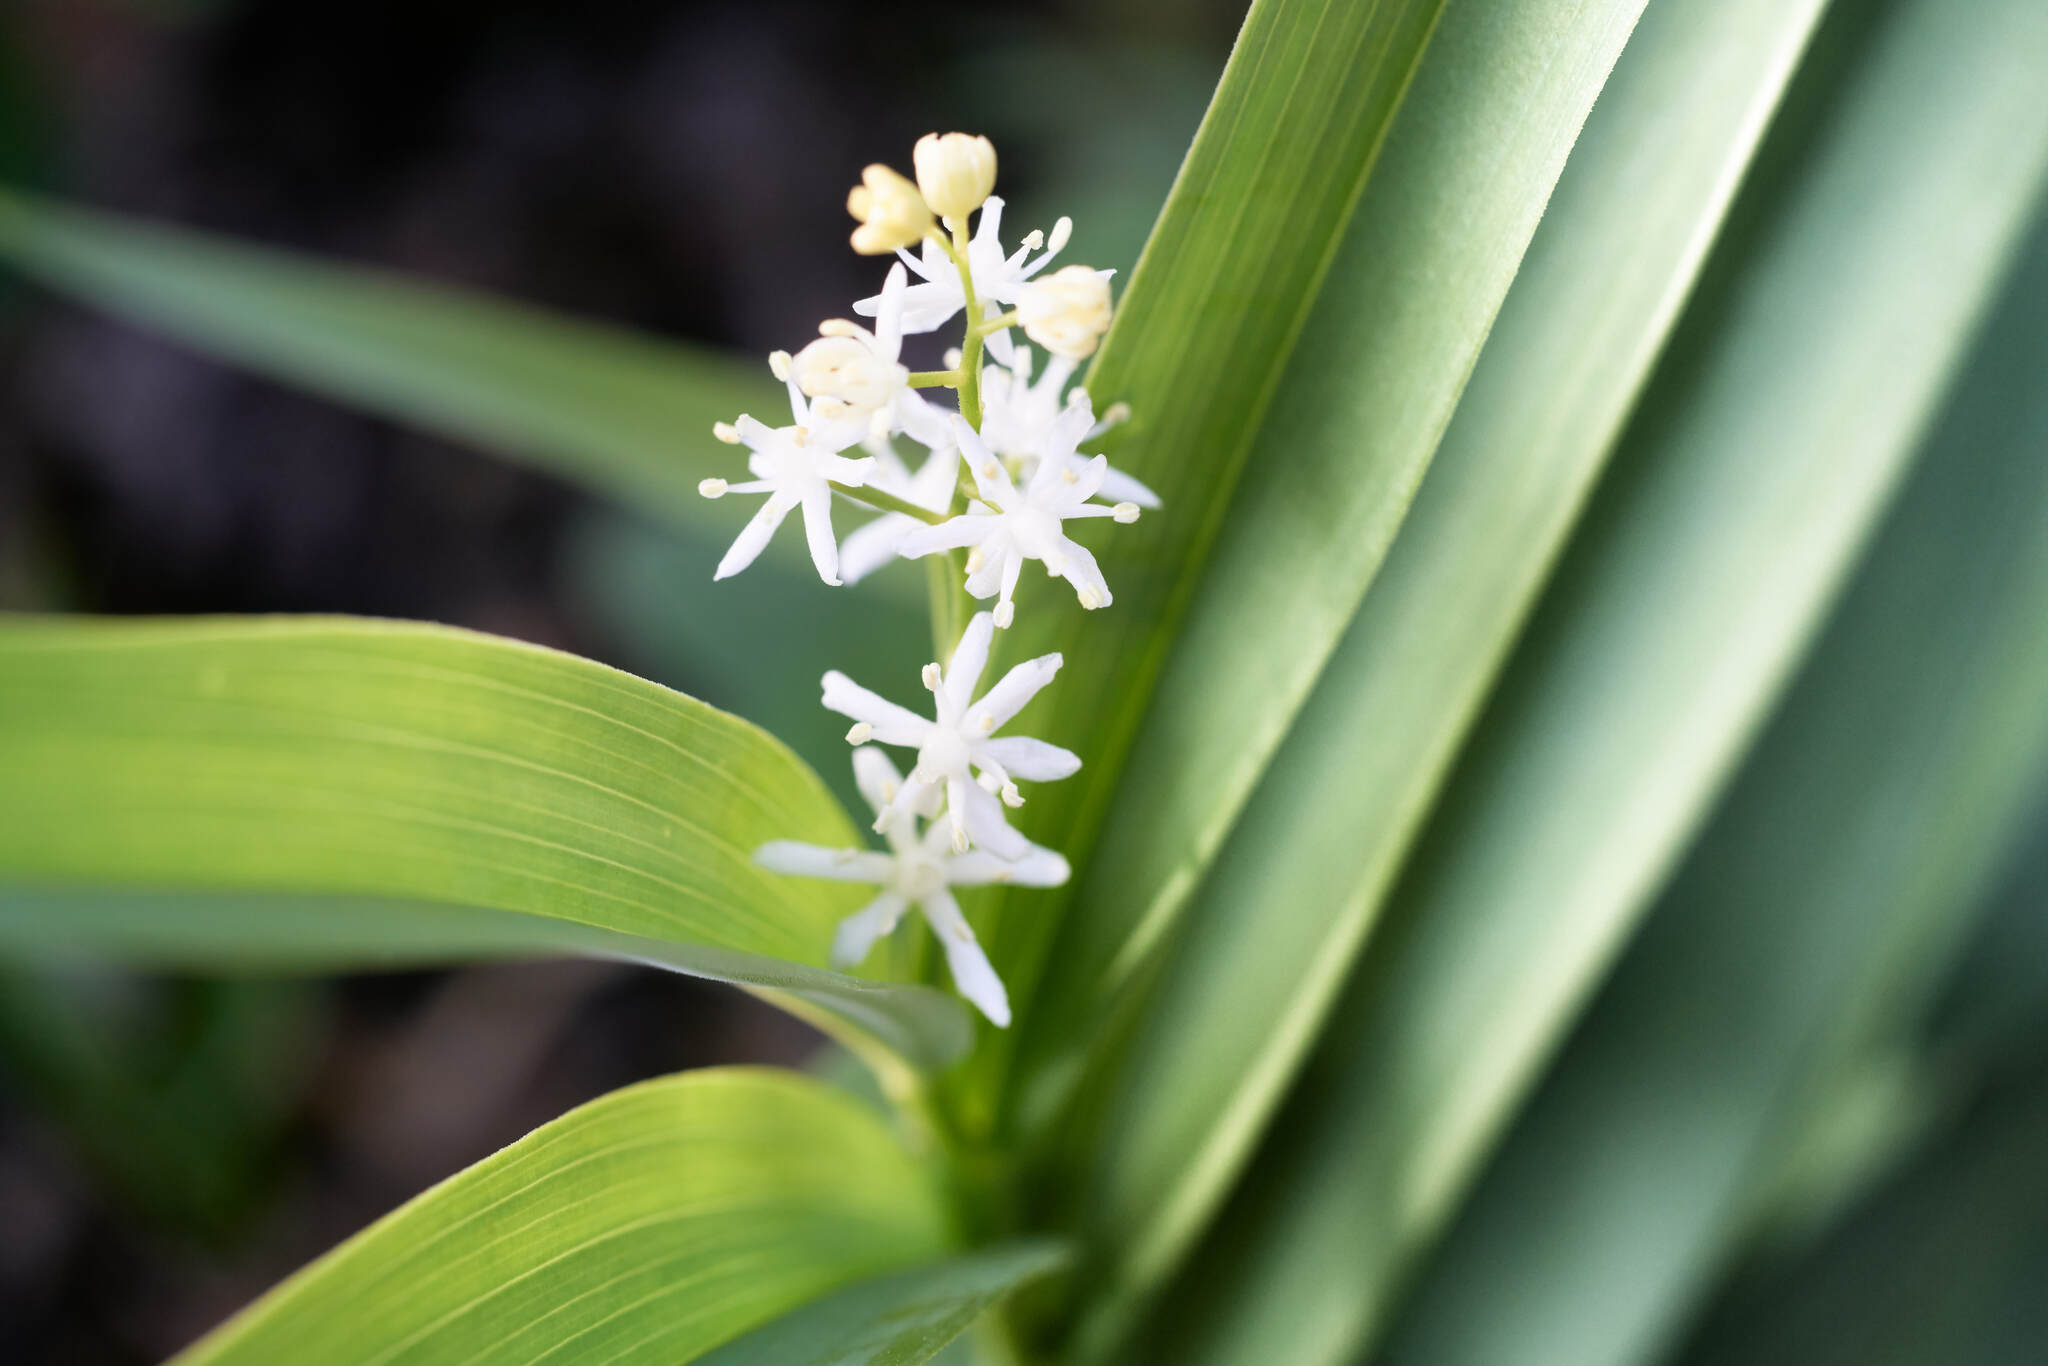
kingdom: Plantae
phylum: Tracheophyta
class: Liliopsida
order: Asparagales
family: Asparagaceae
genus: Maianthemum
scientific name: Maianthemum stellatum
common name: Little false solomon's seal
